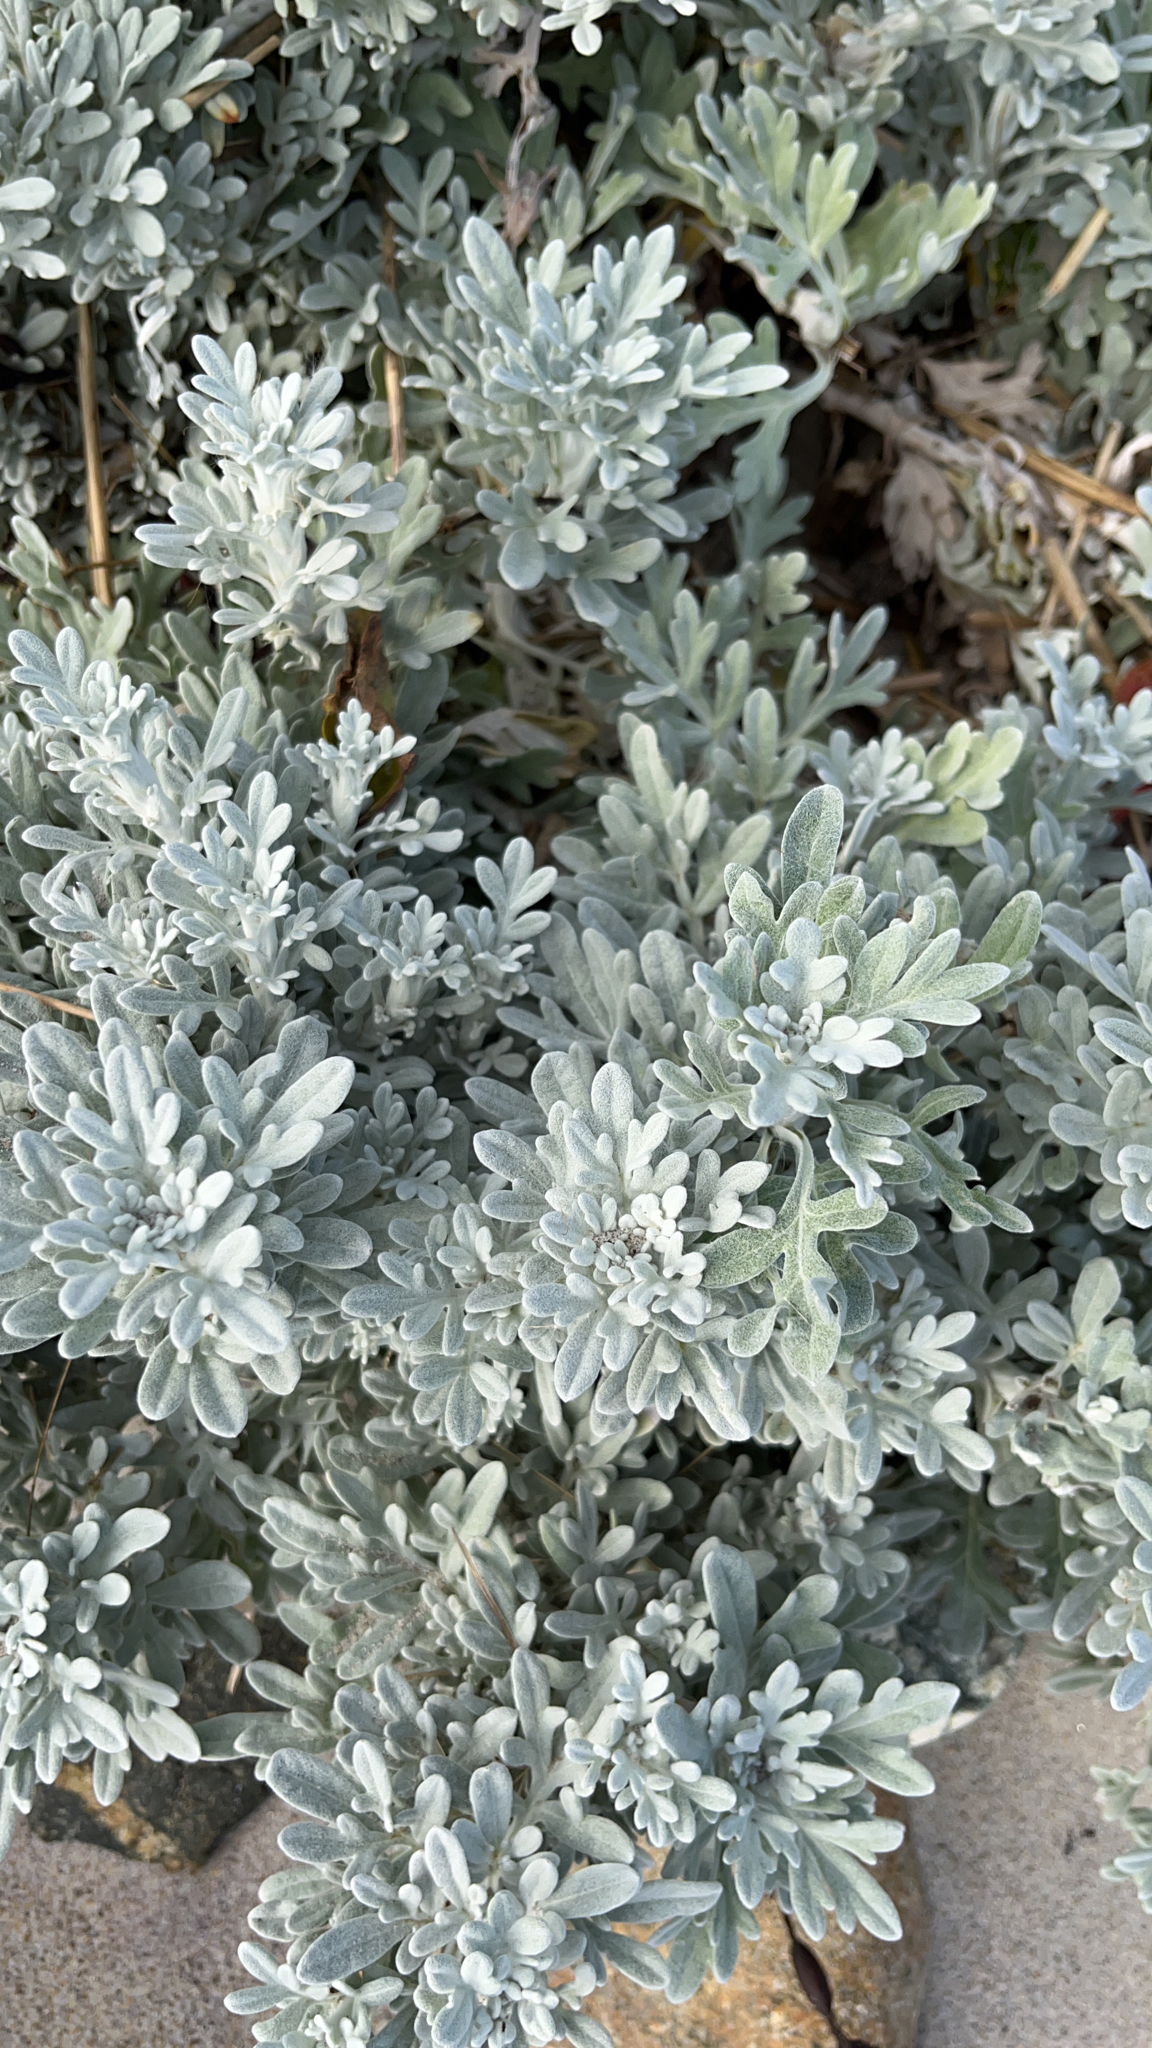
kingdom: Plantae
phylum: Tracheophyta
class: Magnoliopsida
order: Asterales
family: Asteraceae
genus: Artemisia
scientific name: Artemisia stelleriana
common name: Beach wormwood
